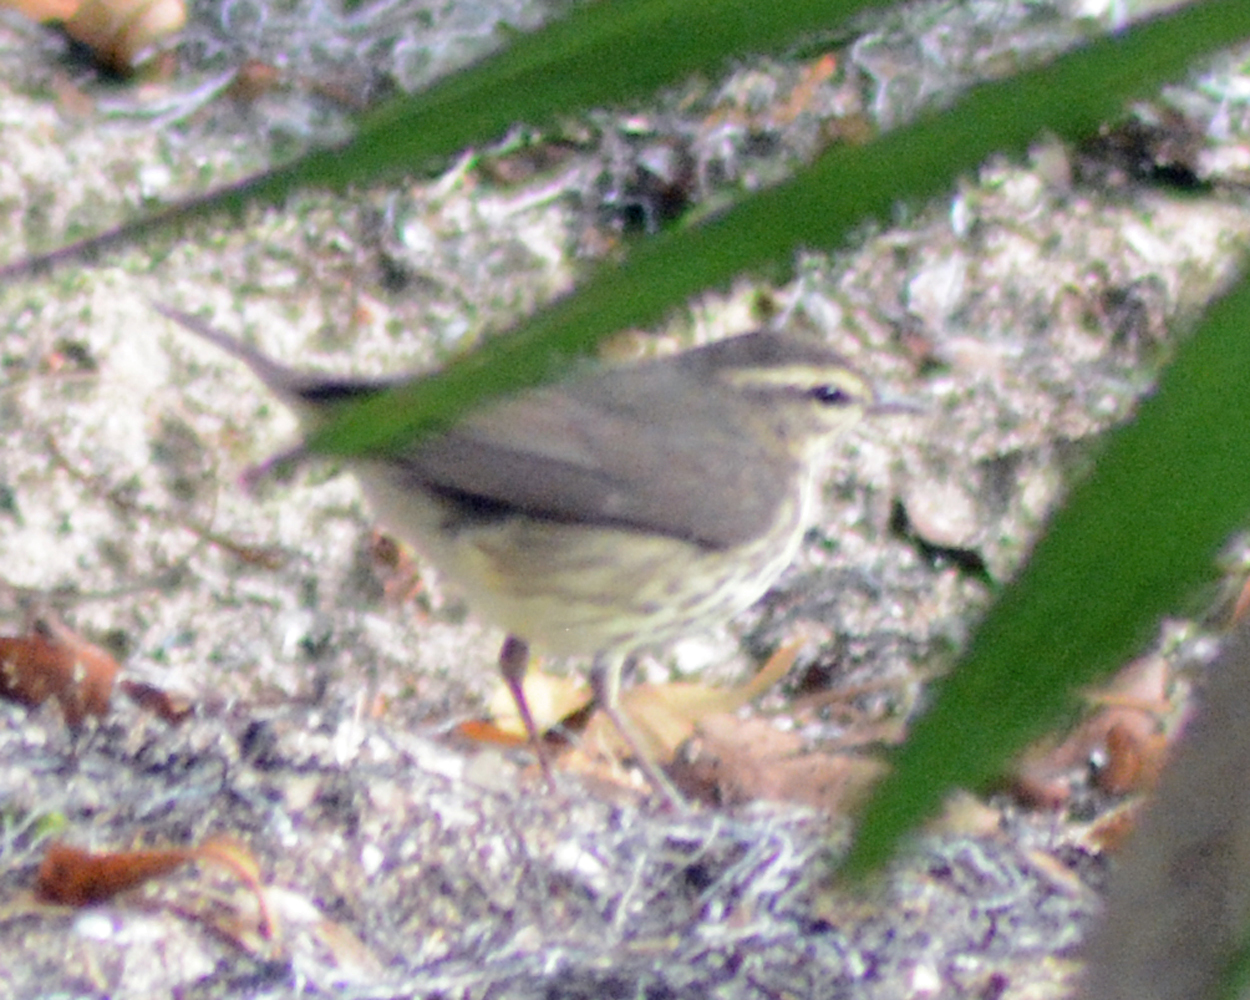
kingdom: Animalia
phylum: Chordata
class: Aves
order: Passeriformes
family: Parulidae
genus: Parkesia
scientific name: Parkesia noveboracensis
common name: Northern waterthrush
